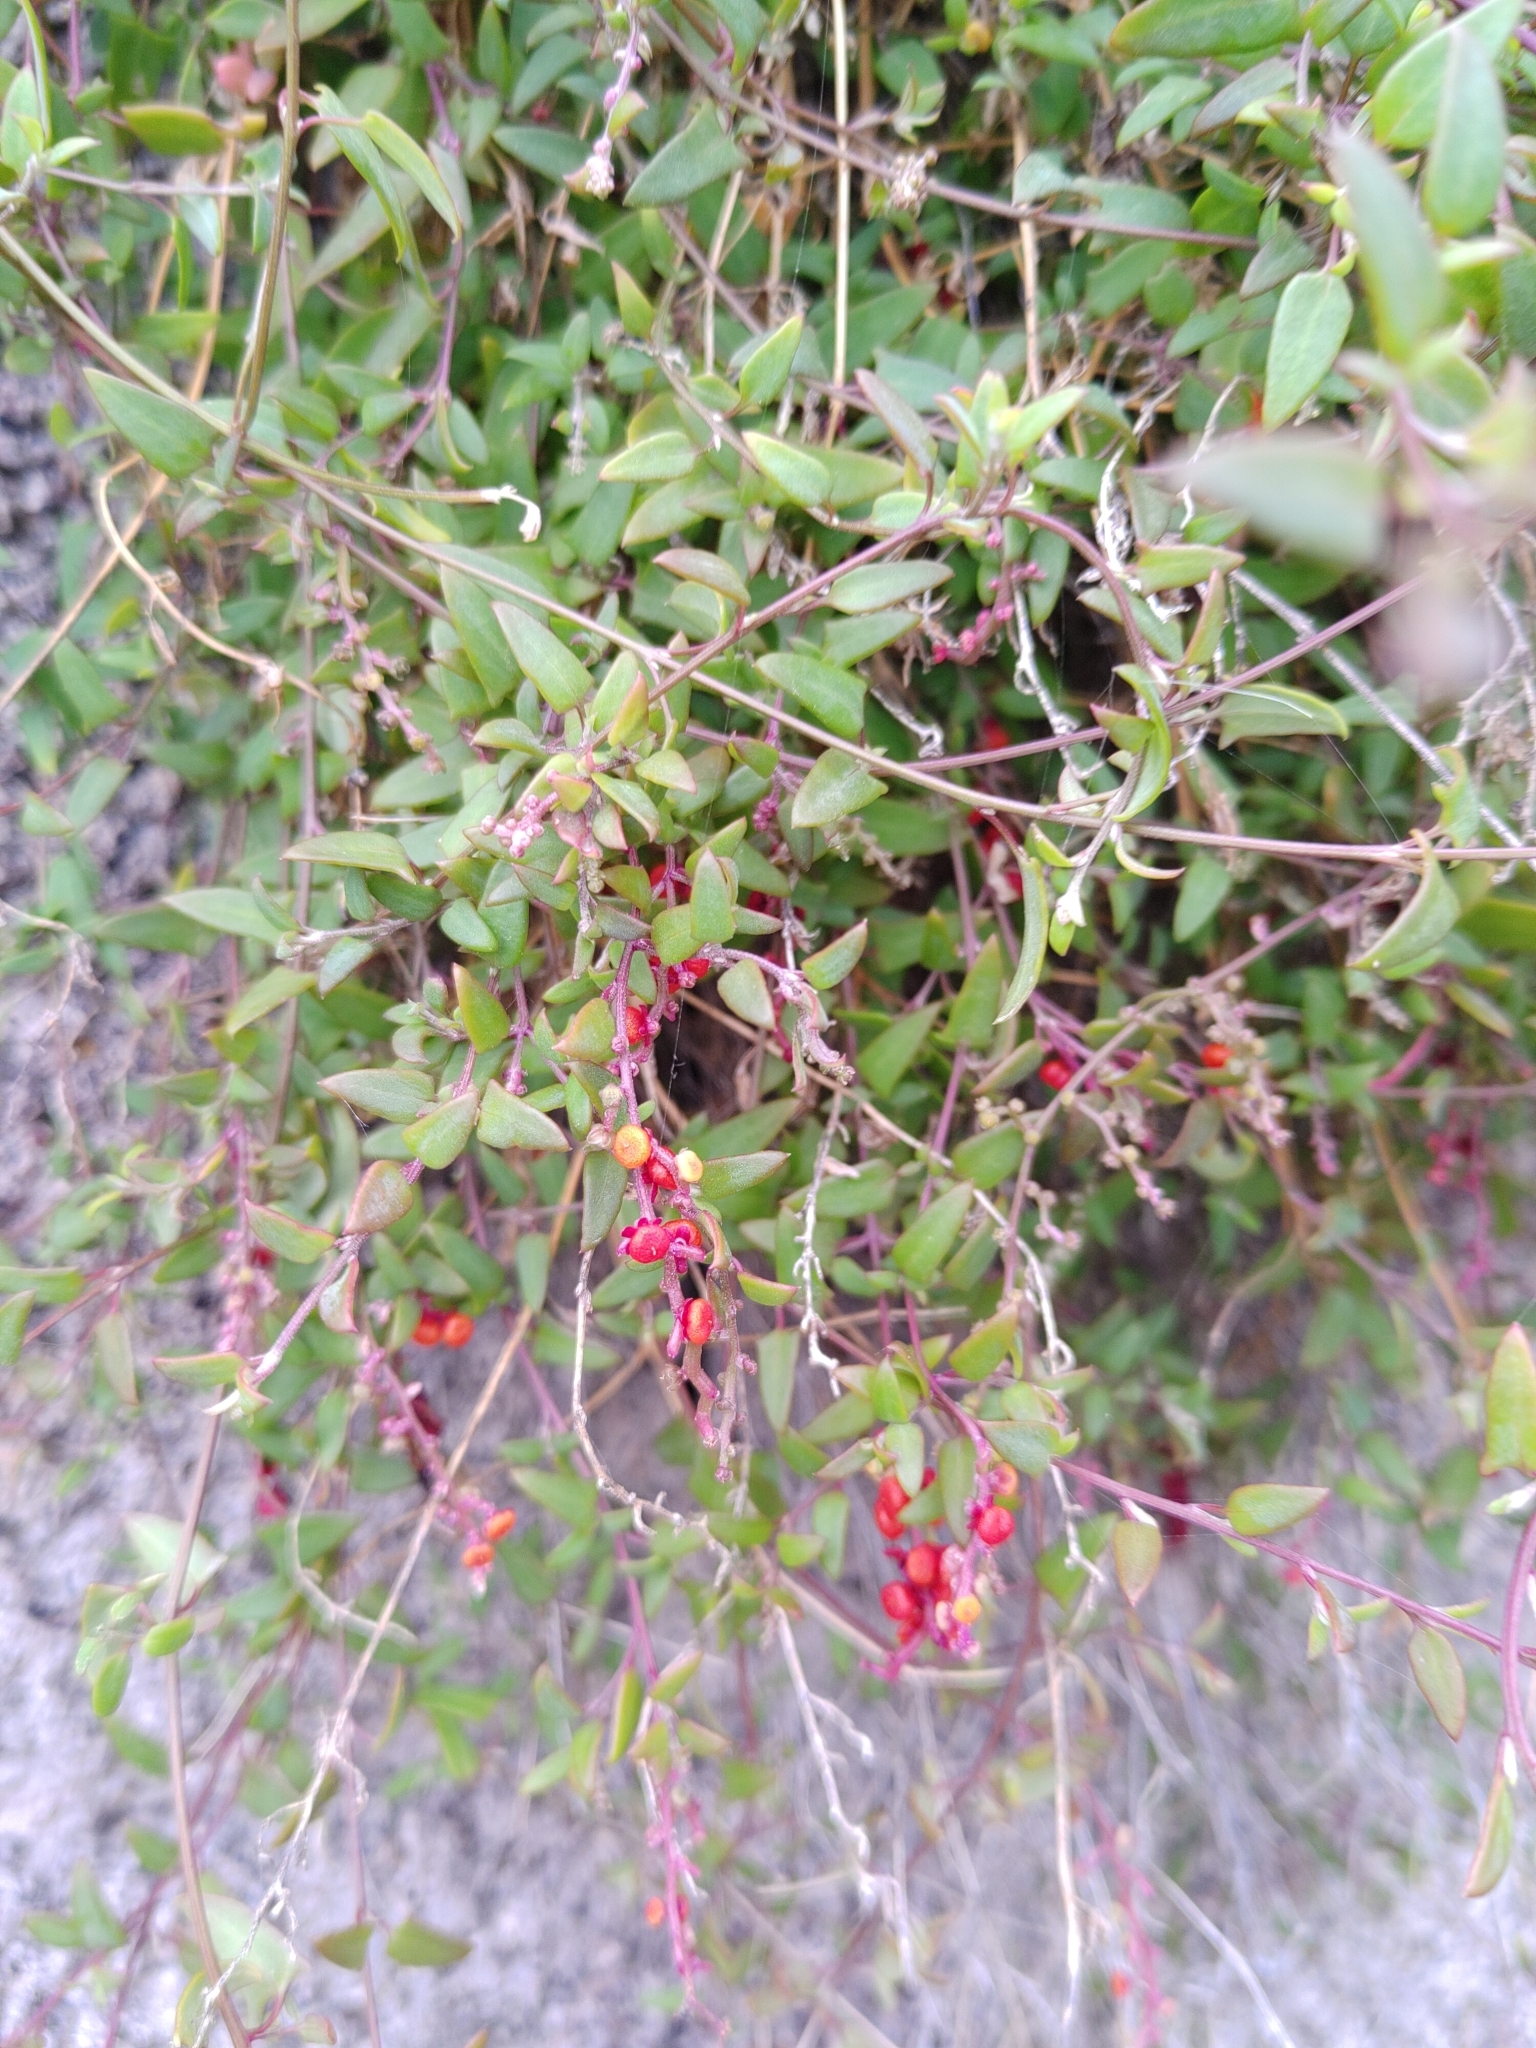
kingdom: Plantae
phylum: Tracheophyta
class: Magnoliopsida
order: Caryophyllales
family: Amaranthaceae
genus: Chenopodium
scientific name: Chenopodium nutans
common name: Climbing-saltbush
